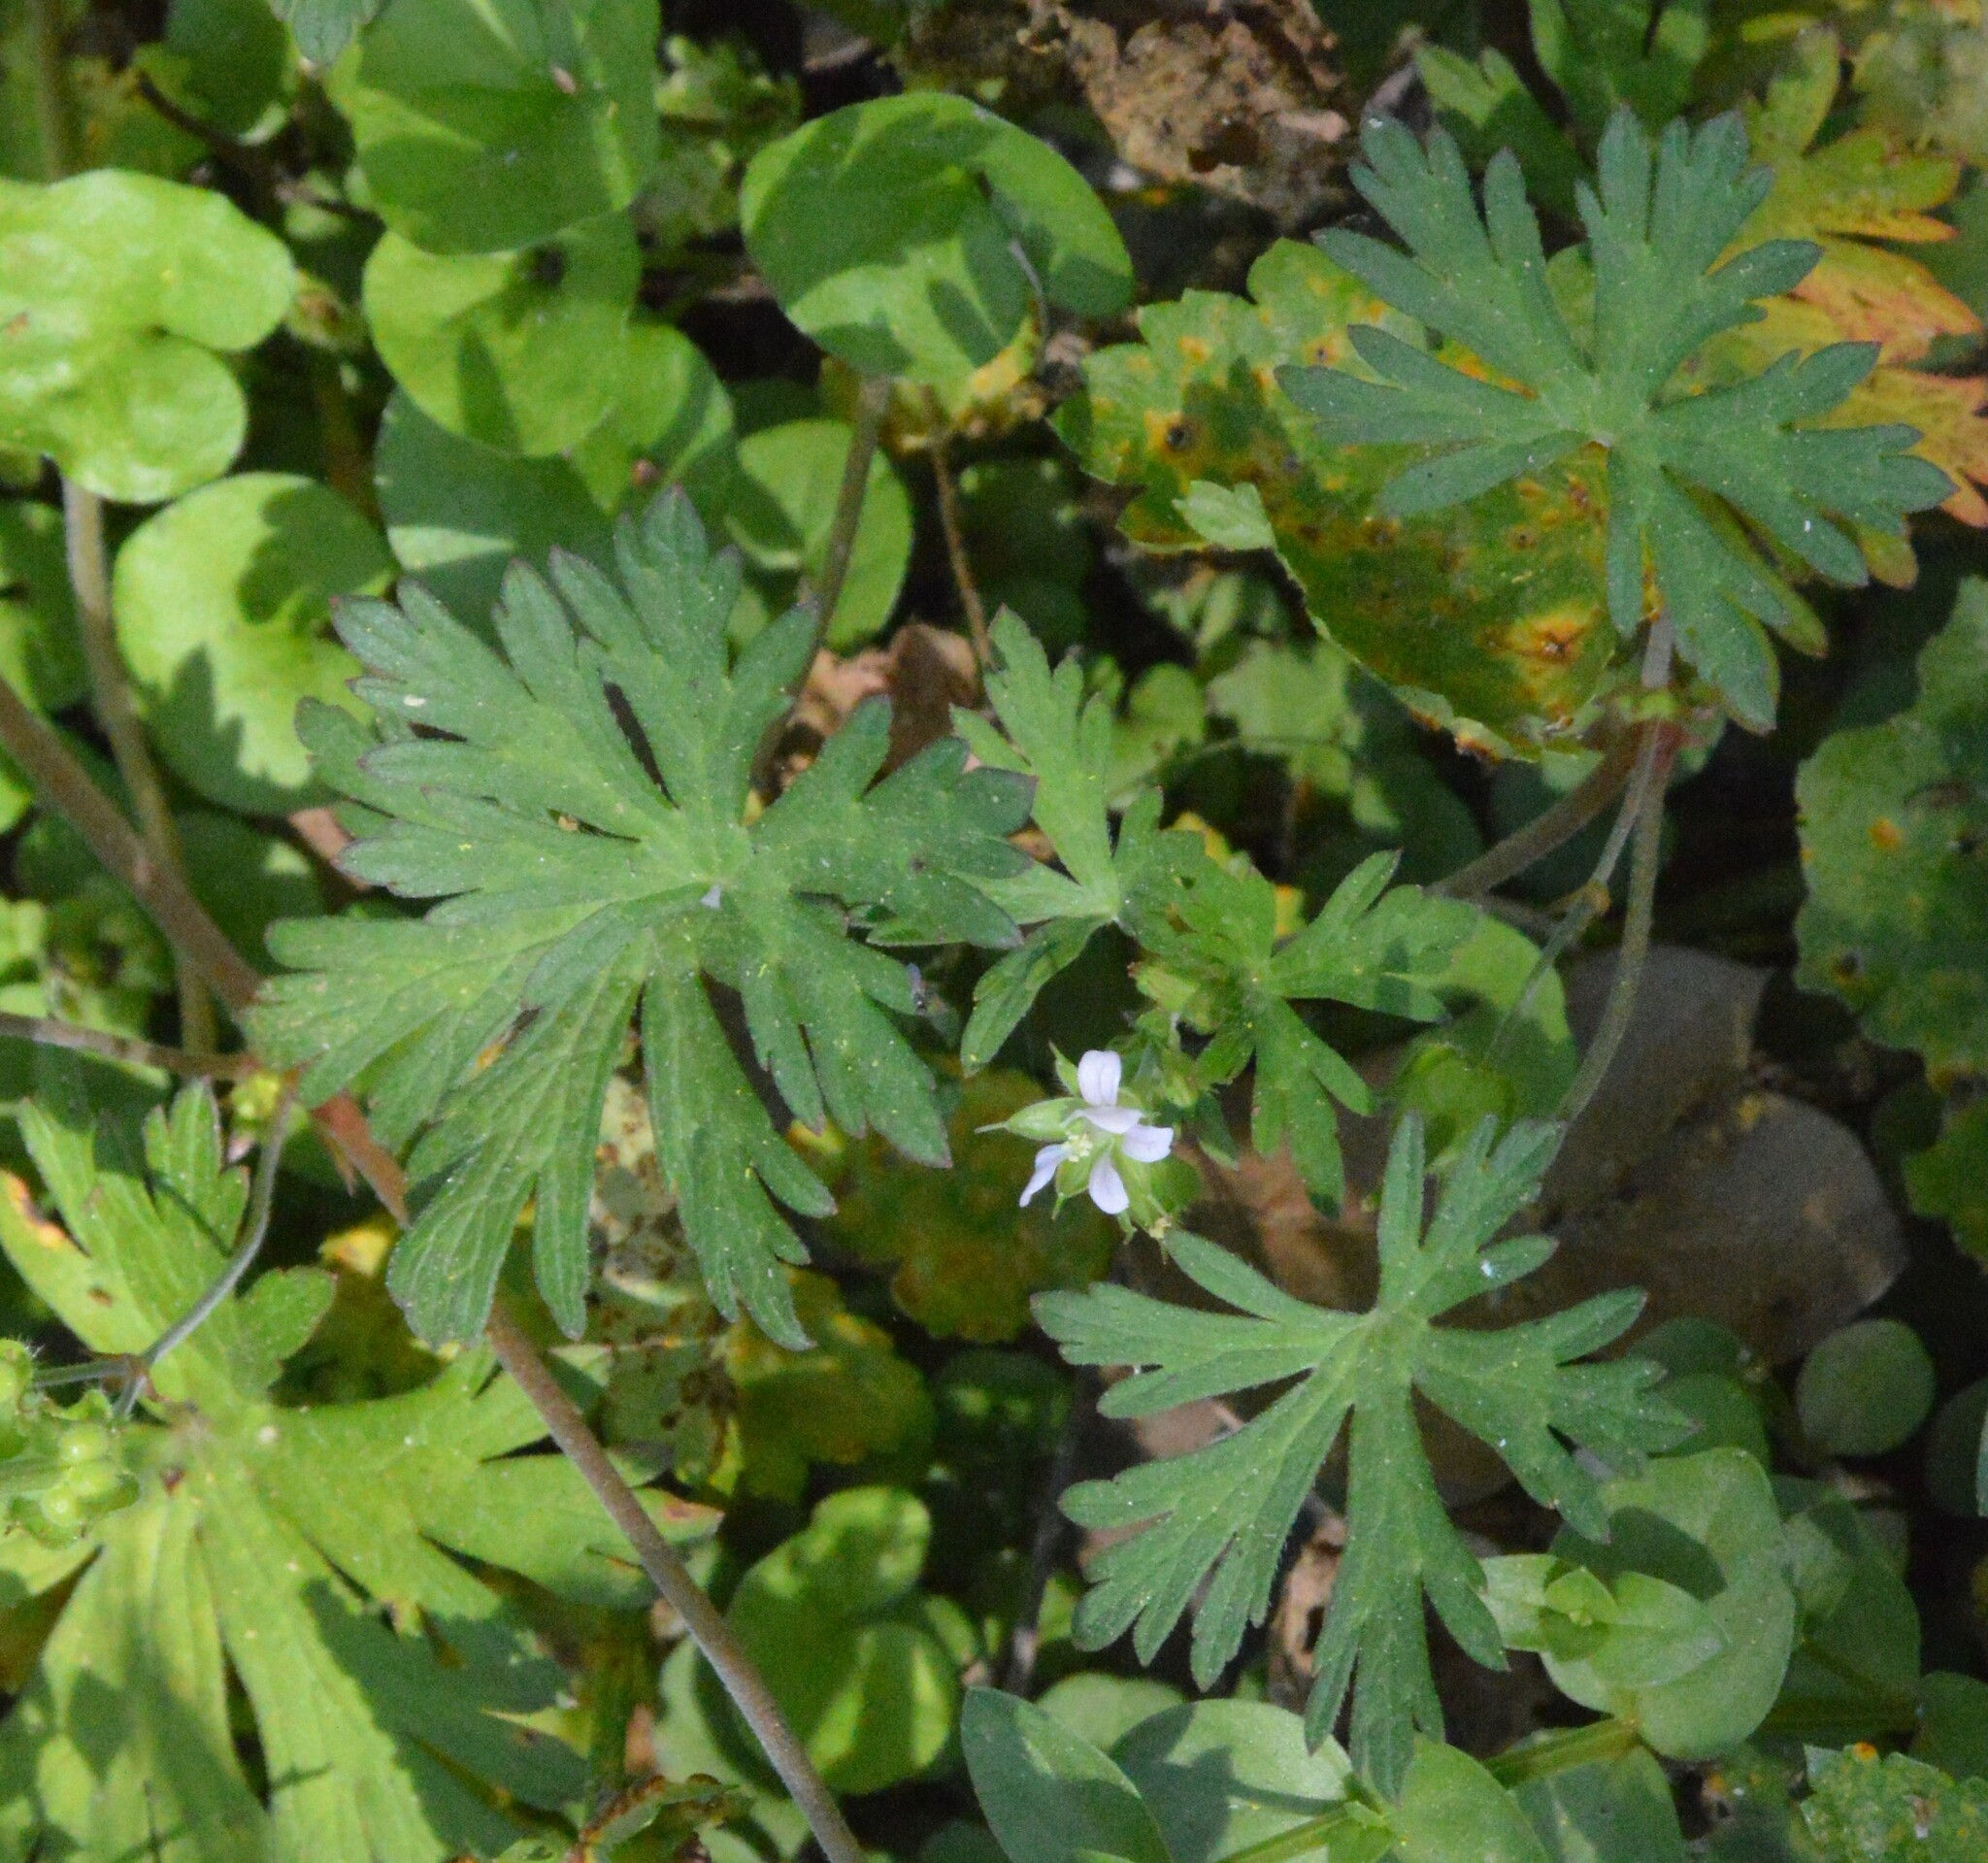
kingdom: Plantae
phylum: Tracheophyta
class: Magnoliopsida
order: Geraniales
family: Geraniaceae
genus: Geranium
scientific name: Geranium carolinianum
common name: Carolina crane's-bill
